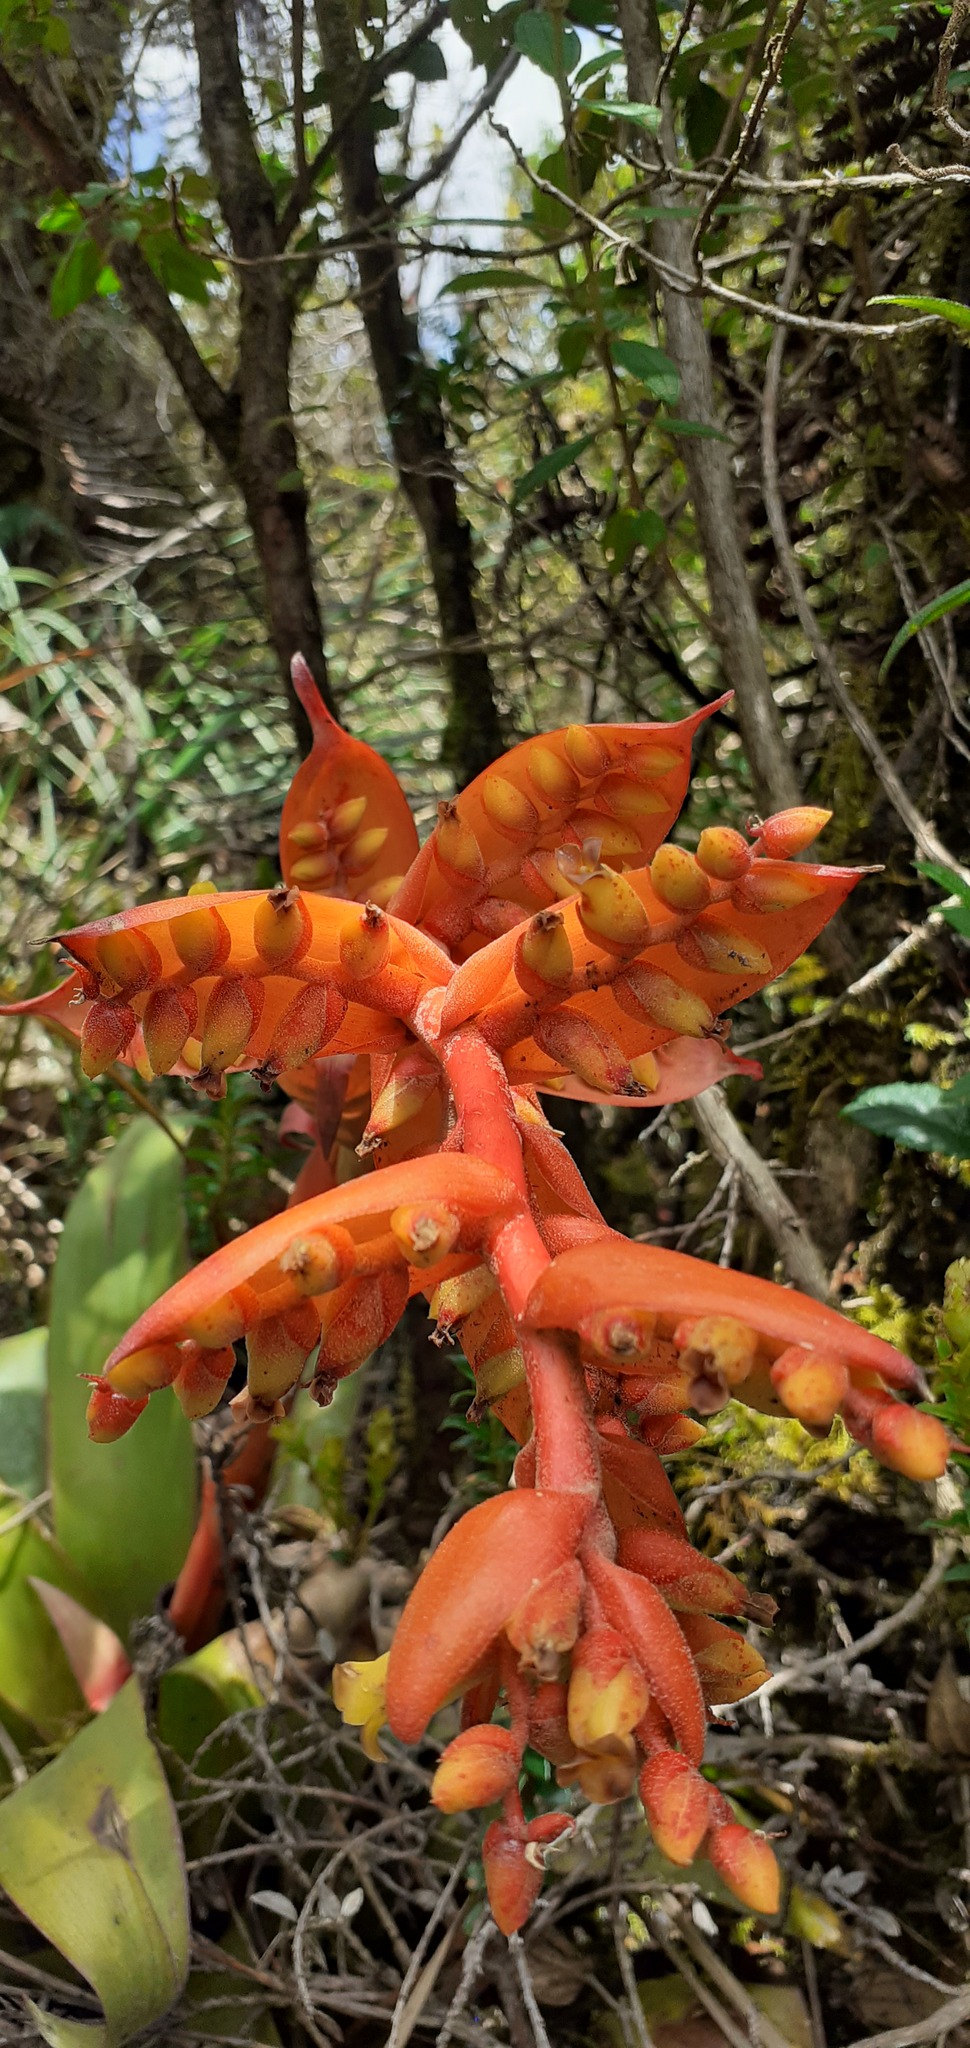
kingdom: Plantae
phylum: Tracheophyta
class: Liliopsida
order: Poales
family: Bromeliaceae
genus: Racinaea
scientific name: Racinaea tetrantha
